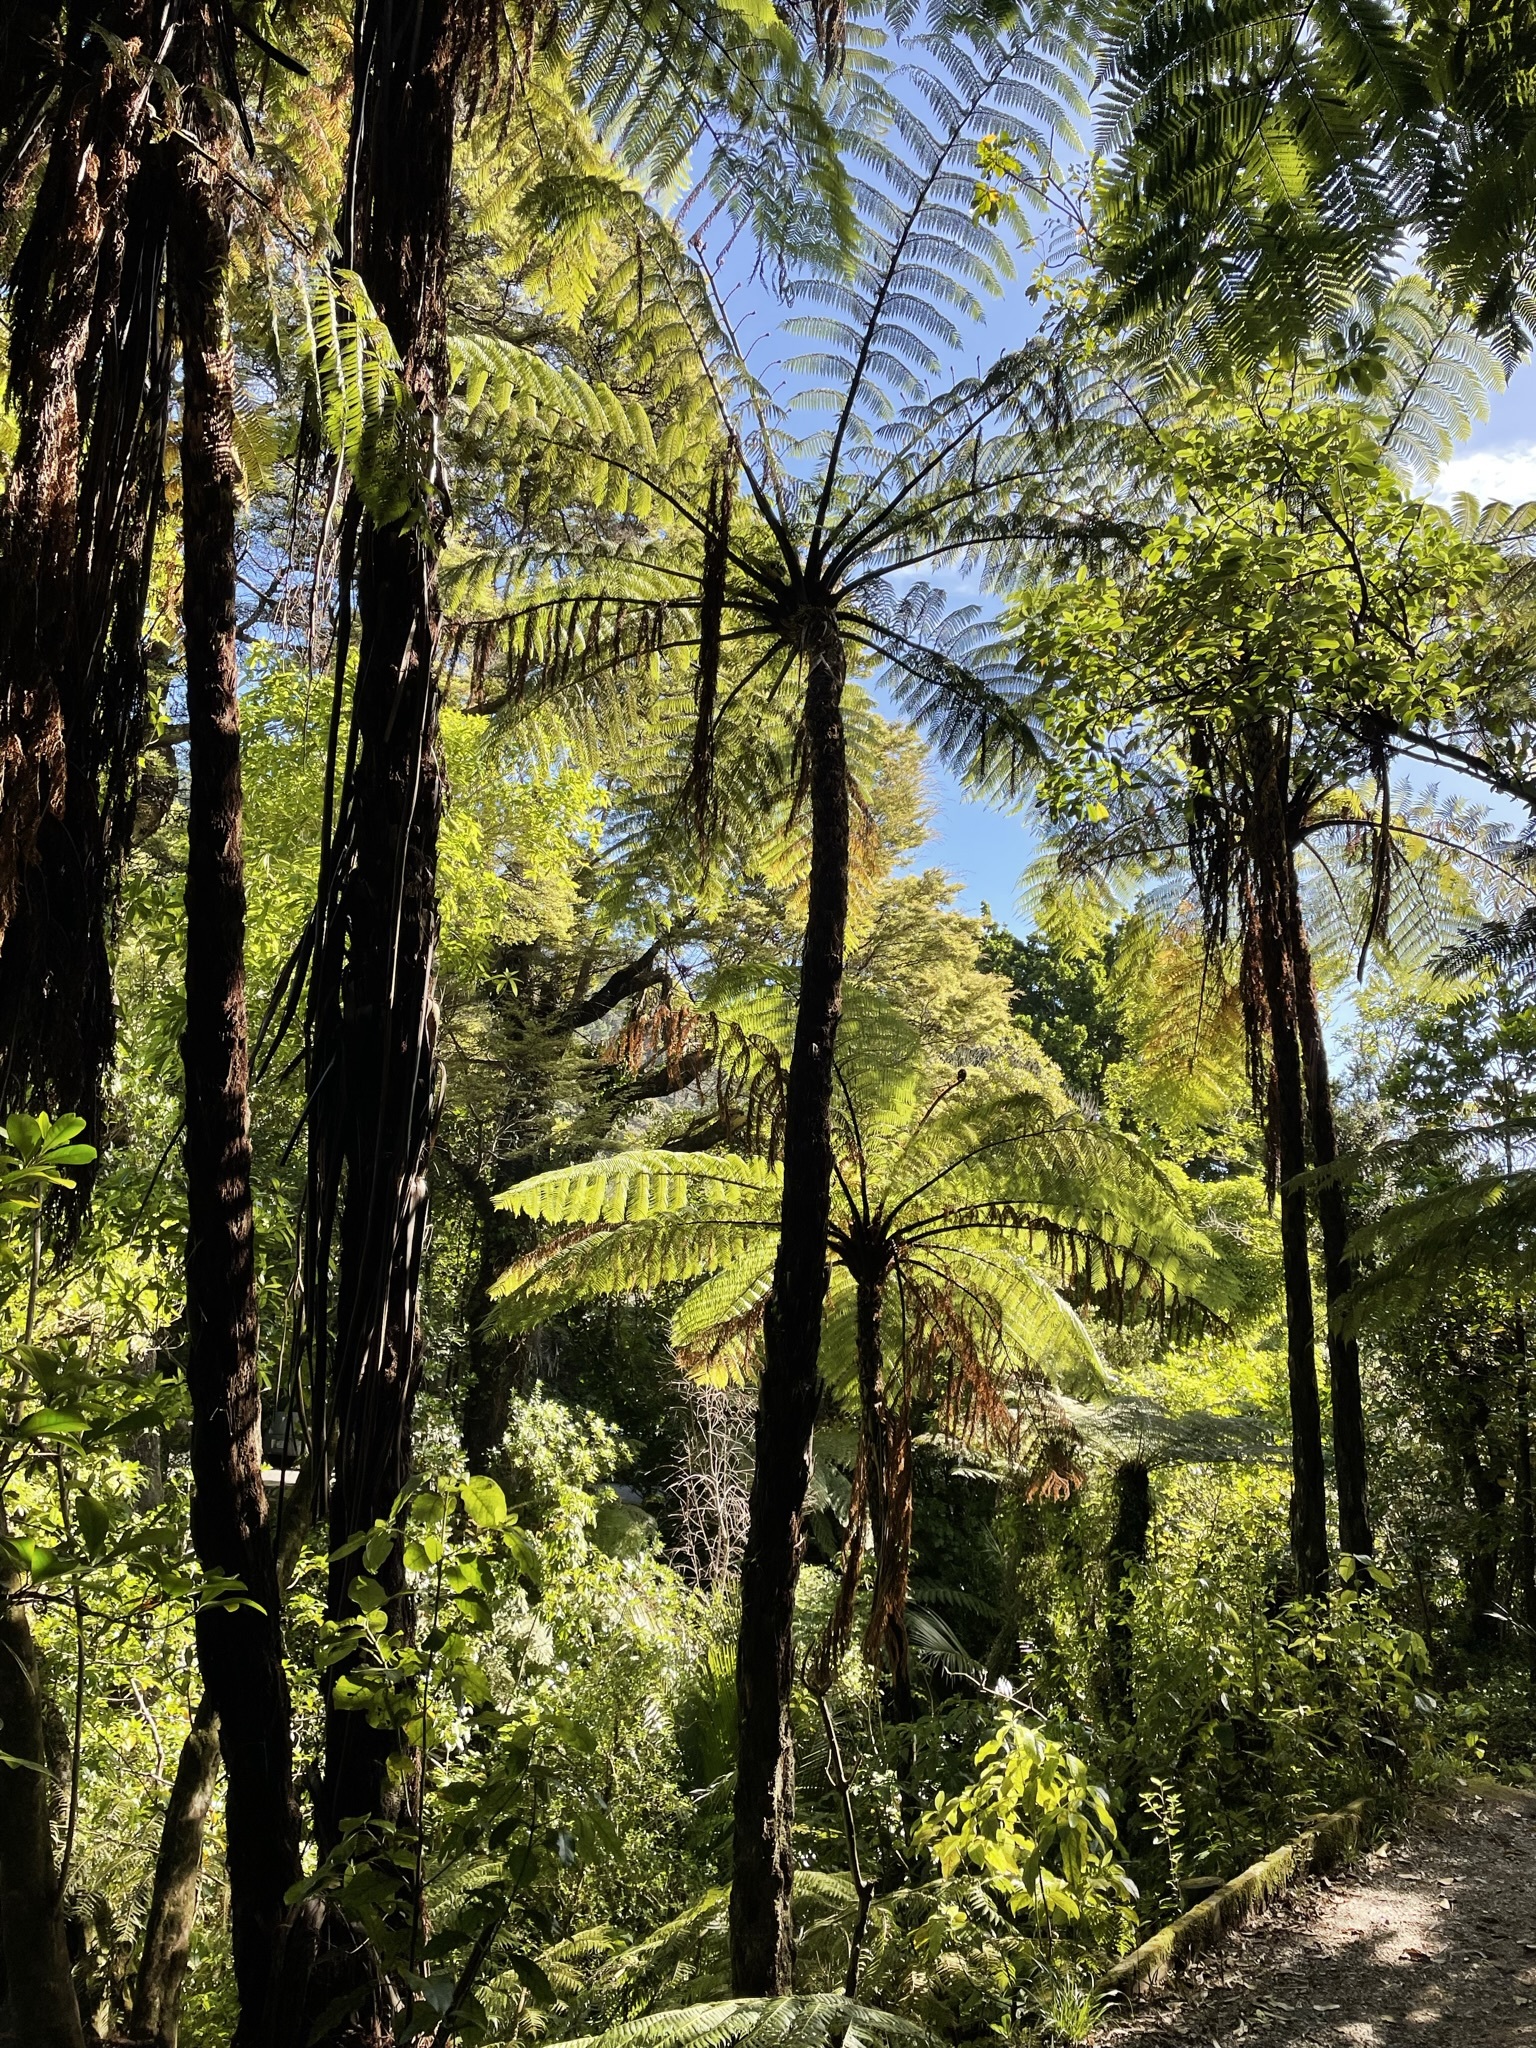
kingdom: Plantae
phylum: Tracheophyta
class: Polypodiopsida
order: Cyatheales
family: Cyatheaceae
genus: Sphaeropteris
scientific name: Sphaeropteris medullaris
